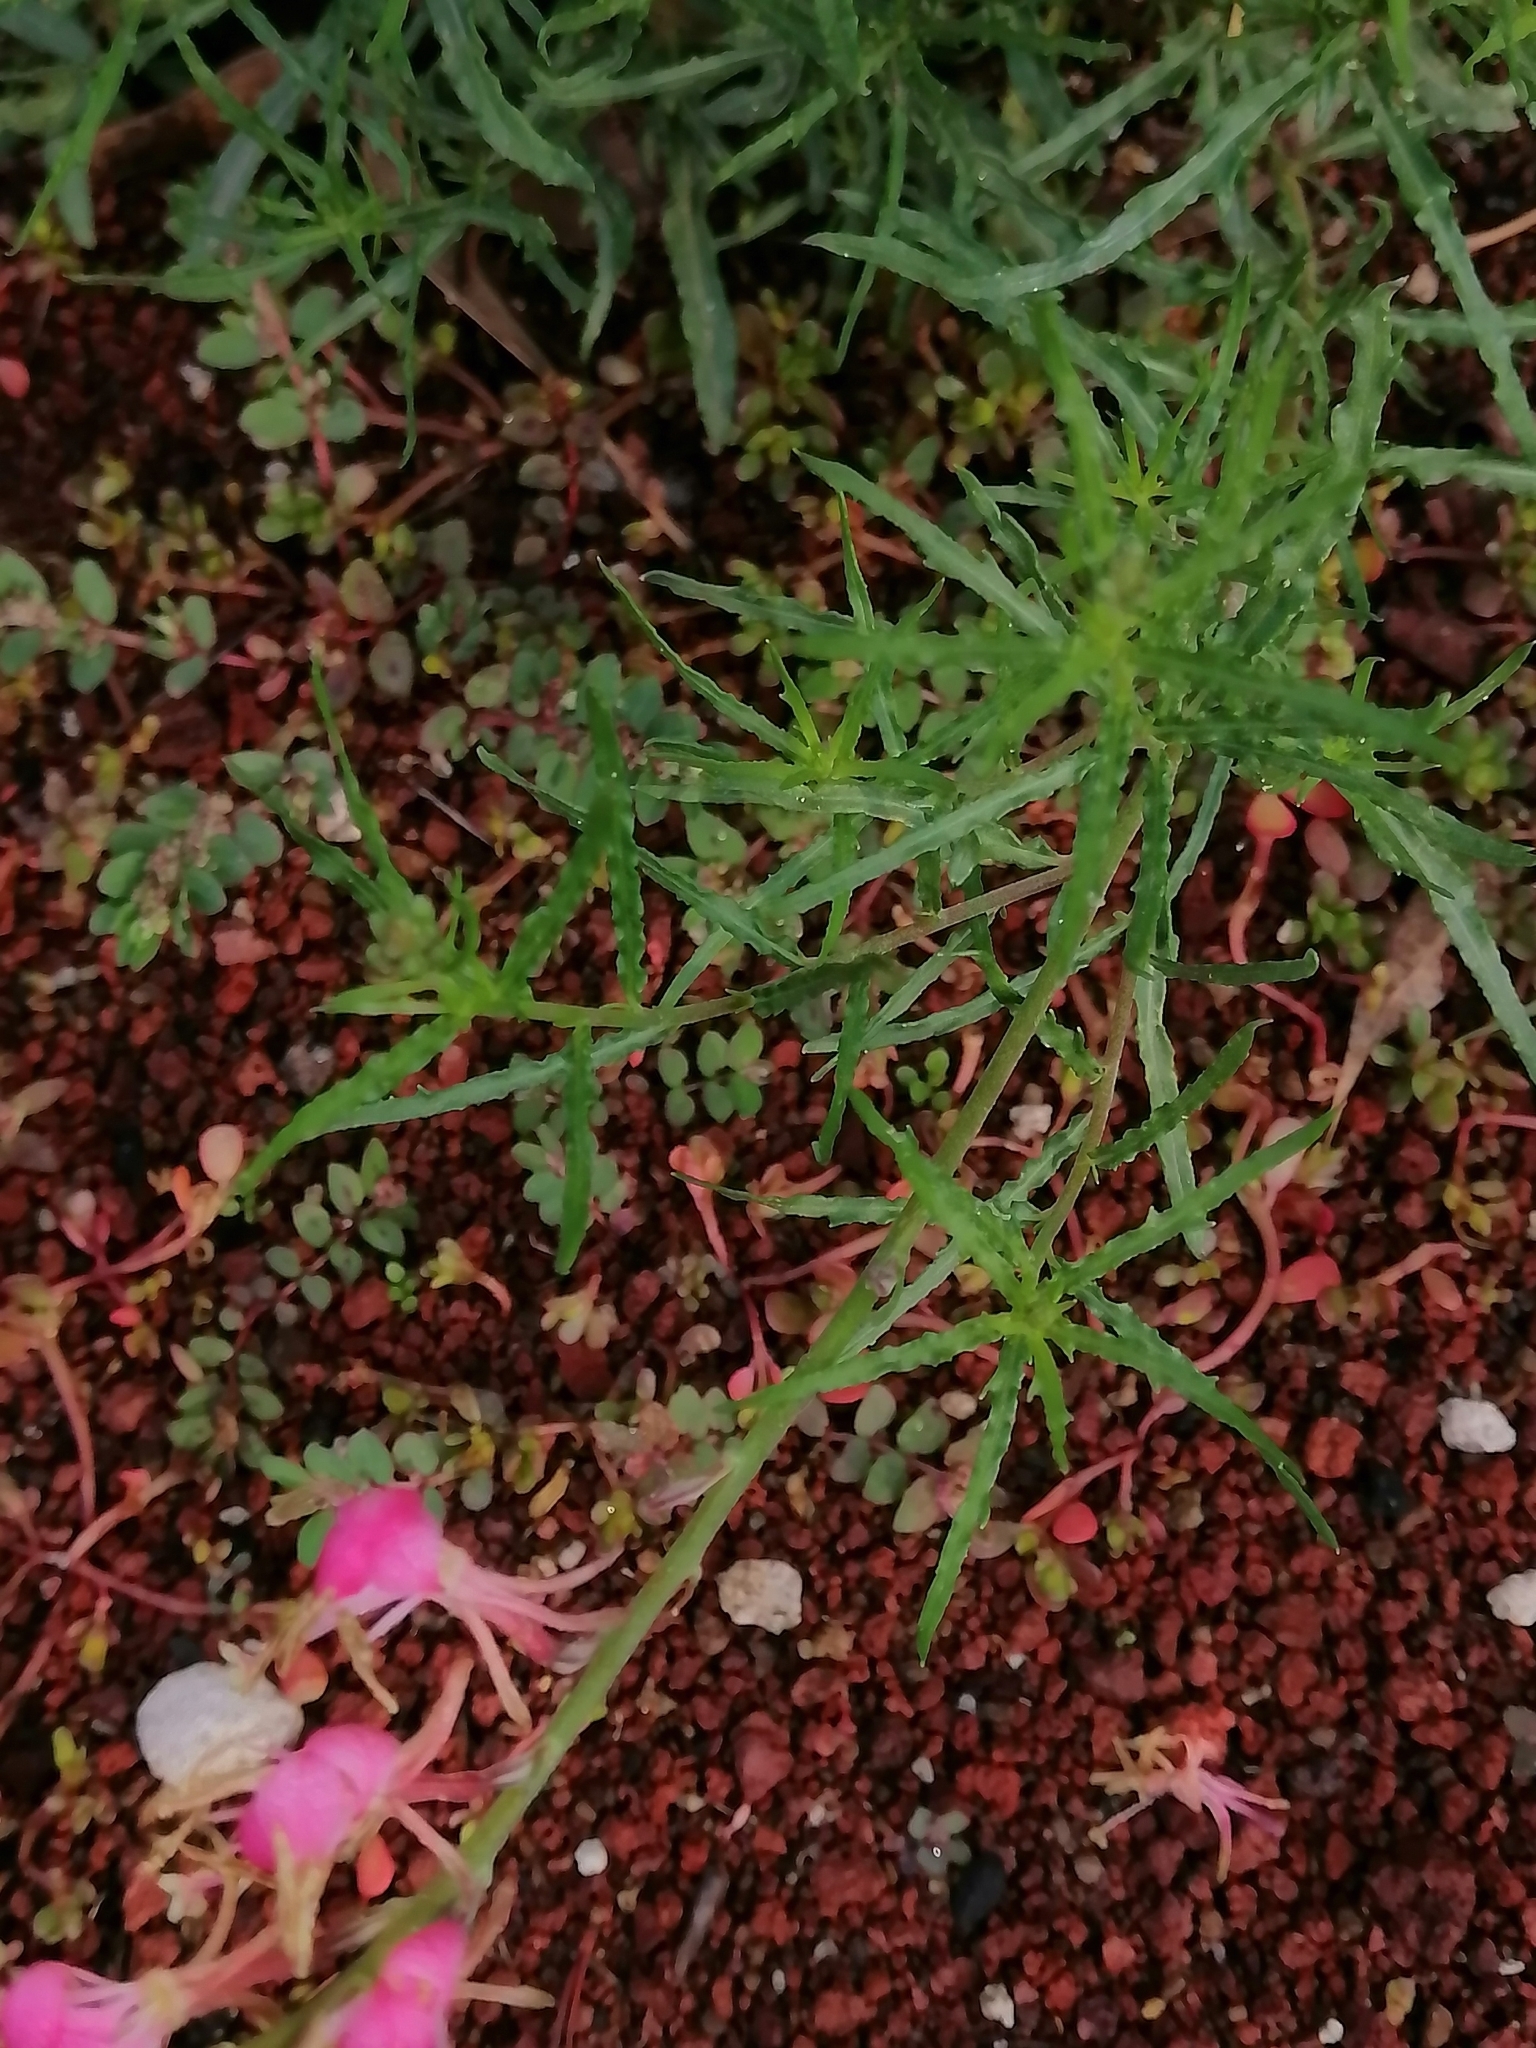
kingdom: Plantae
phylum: Tracheophyta
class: Magnoliopsida
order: Myrtales
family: Onagraceae
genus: Oenothera
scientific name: Oenothera suffrutescens
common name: Scarlet beeblossom
